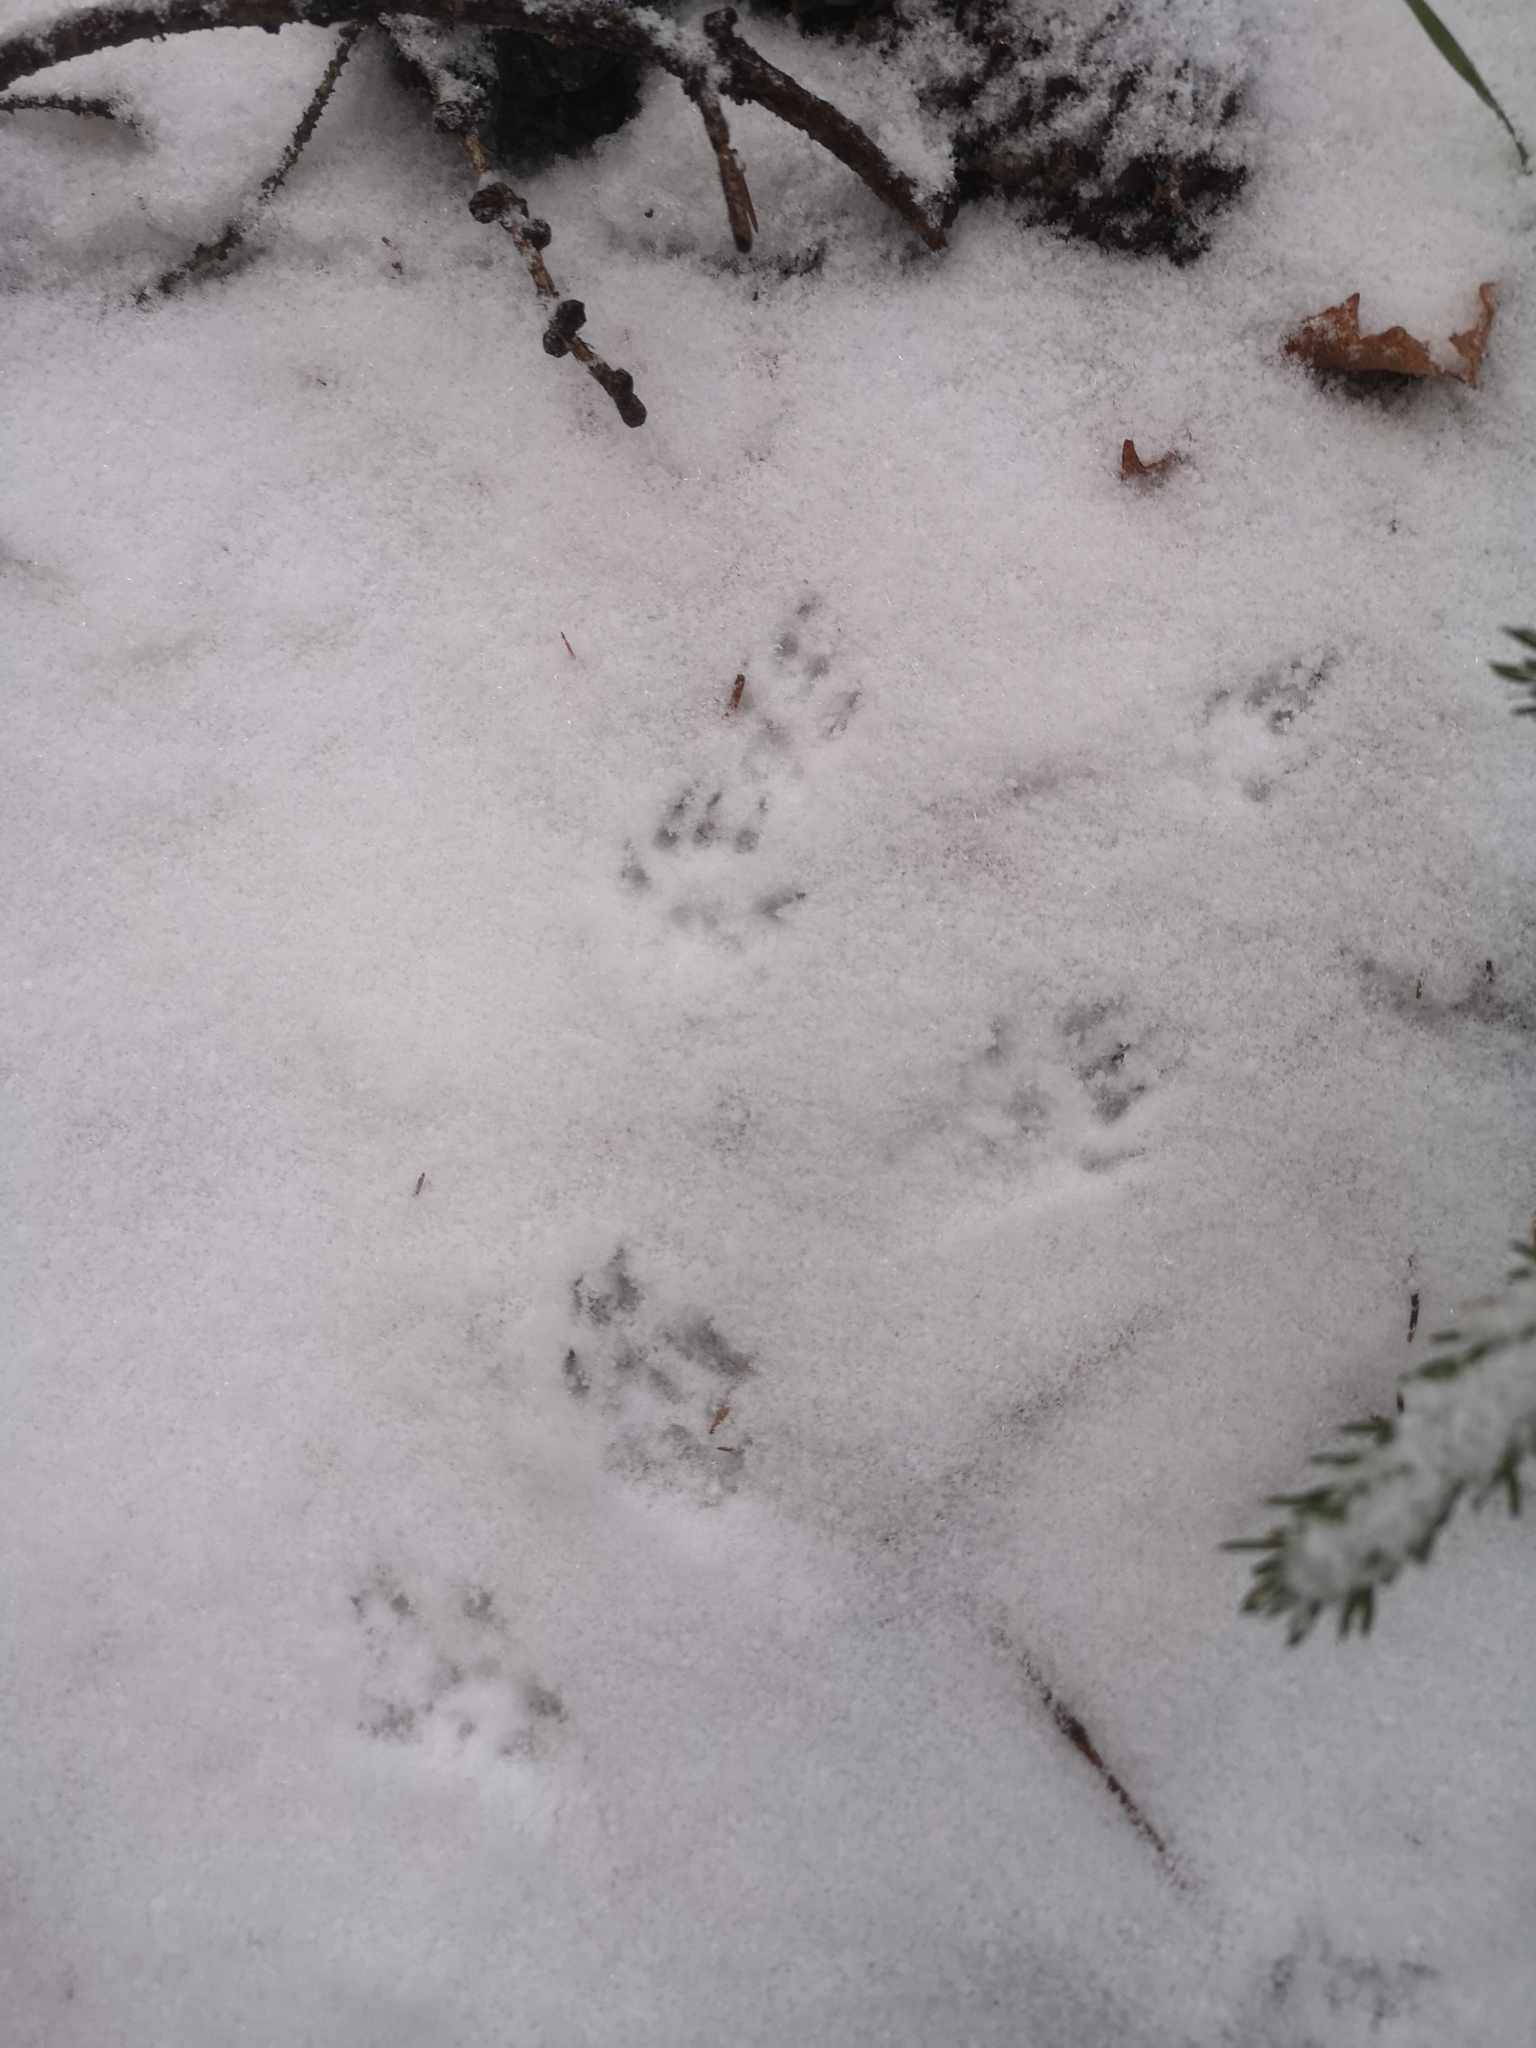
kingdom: Animalia
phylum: Chordata
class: Mammalia
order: Carnivora
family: Mustelidae
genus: Mustela
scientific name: Mustela erminea
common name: Stoat
